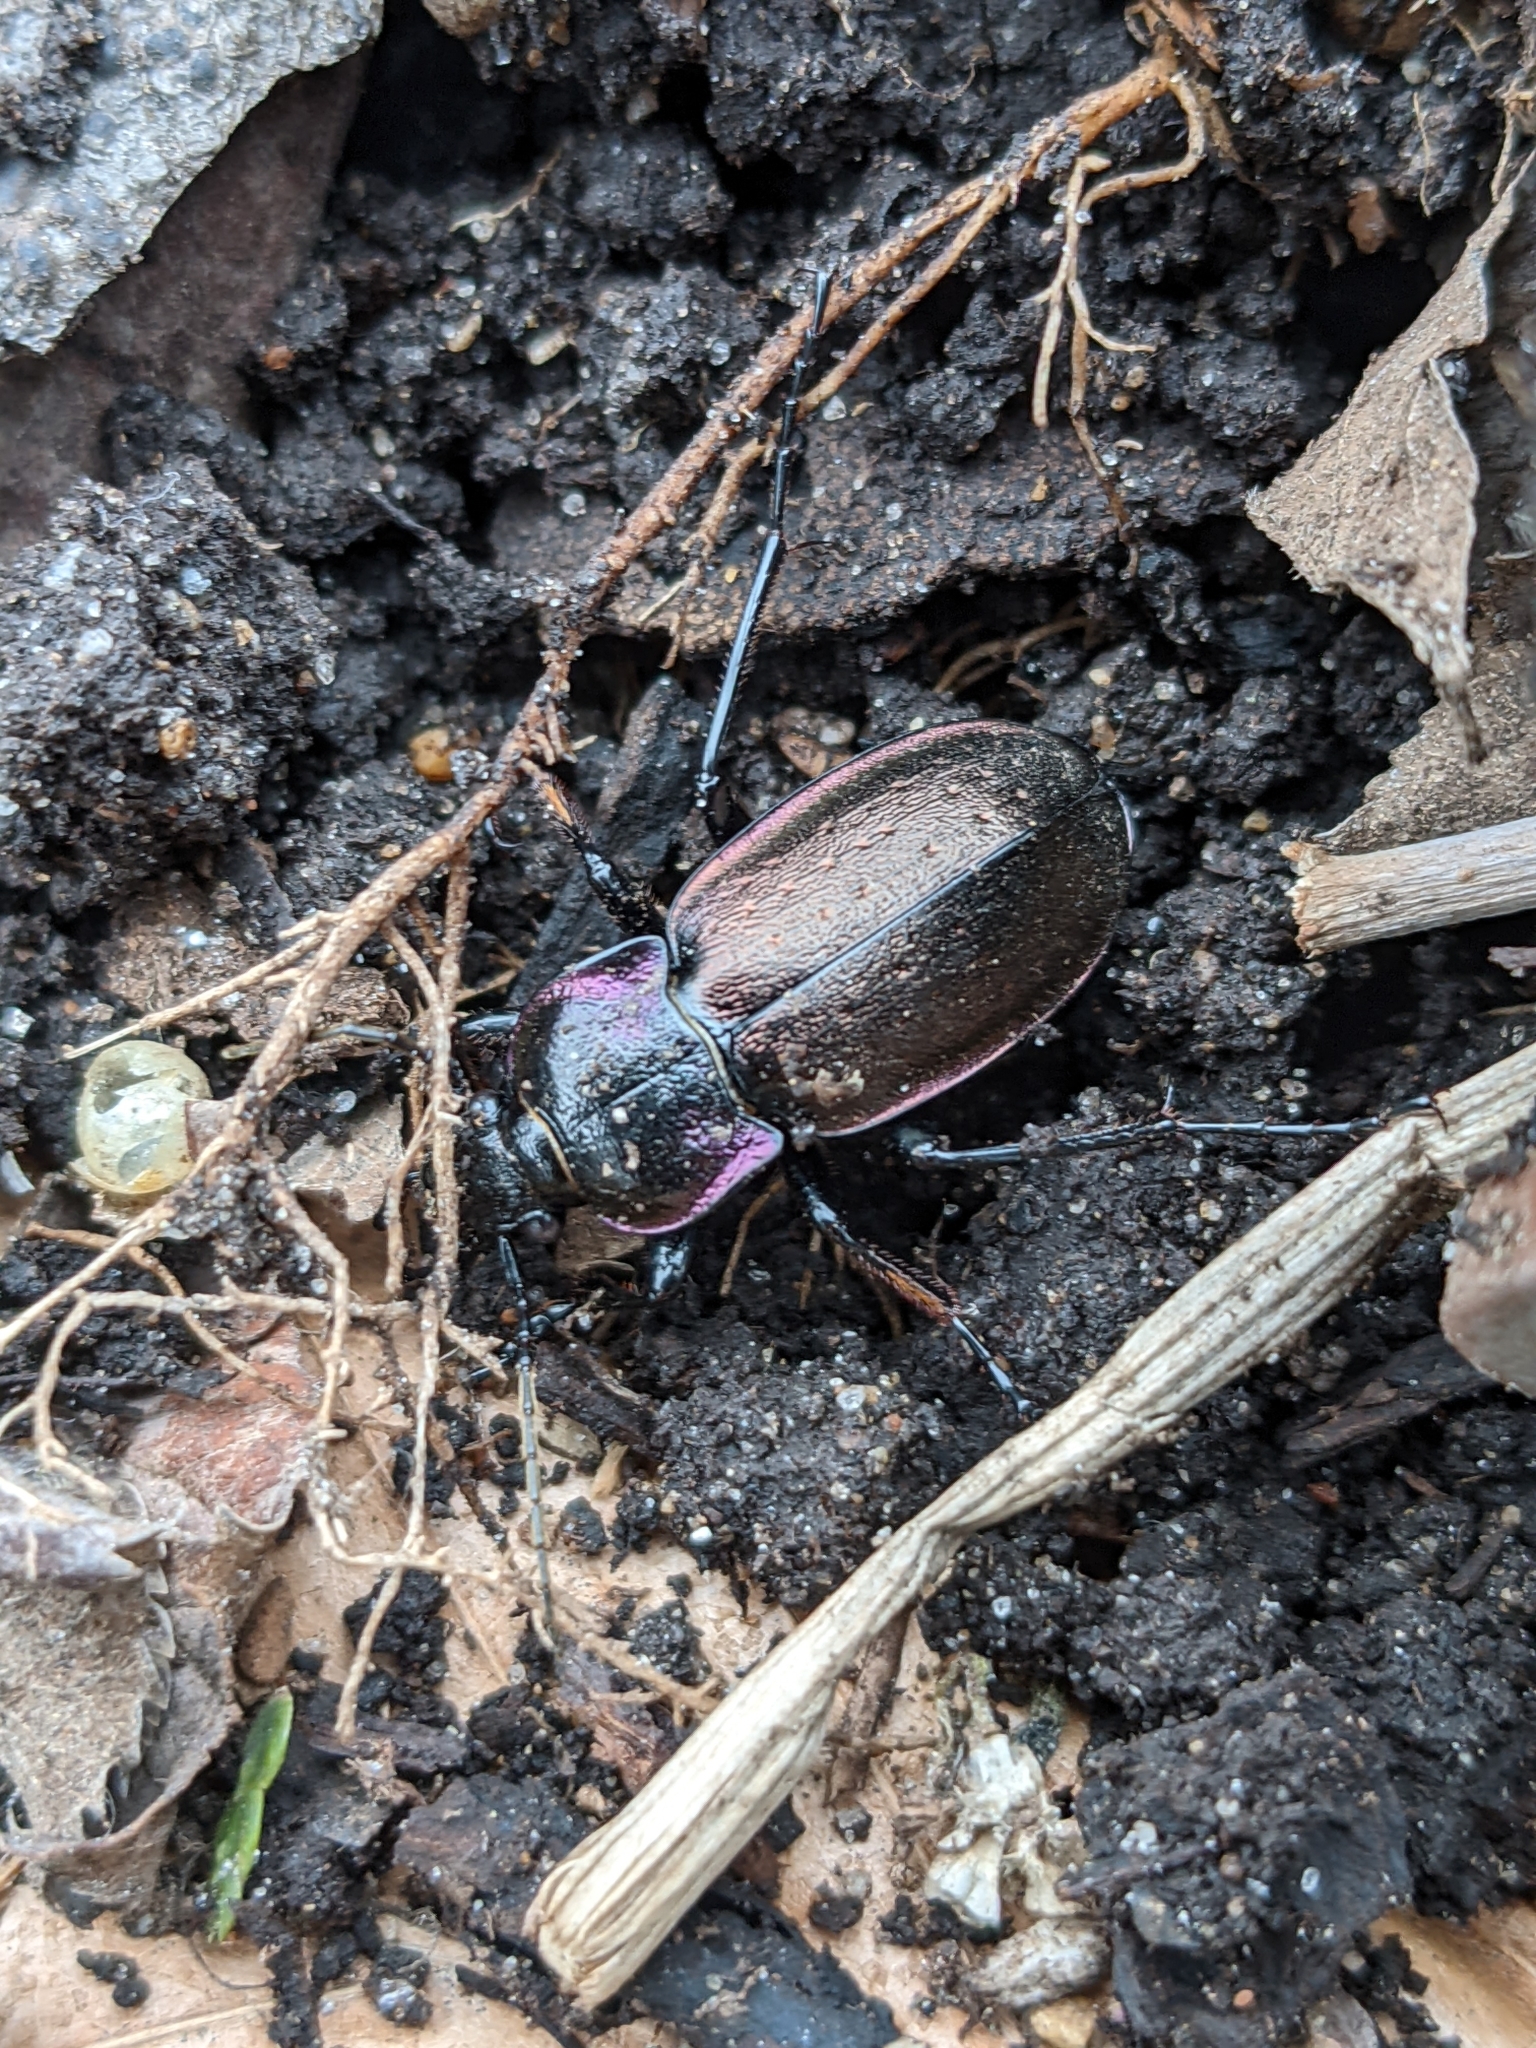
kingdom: Animalia
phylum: Arthropoda
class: Insecta
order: Coleoptera
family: Carabidae
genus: Carabus
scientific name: Carabus nemoralis
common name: European ground beetle
